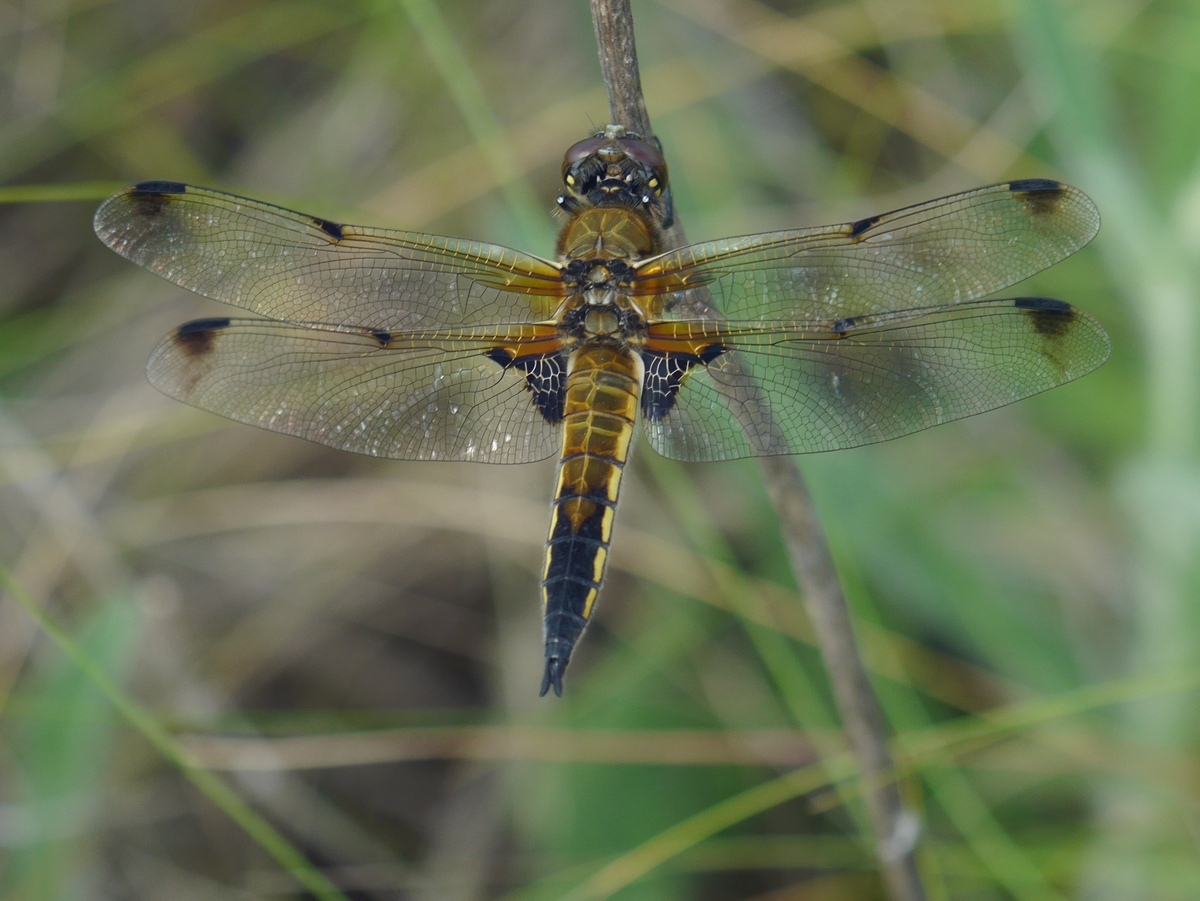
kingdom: Animalia
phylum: Arthropoda
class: Insecta
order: Odonata
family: Libellulidae
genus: Libellula
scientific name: Libellula quadrimaculata
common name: Four-spotted chaser
